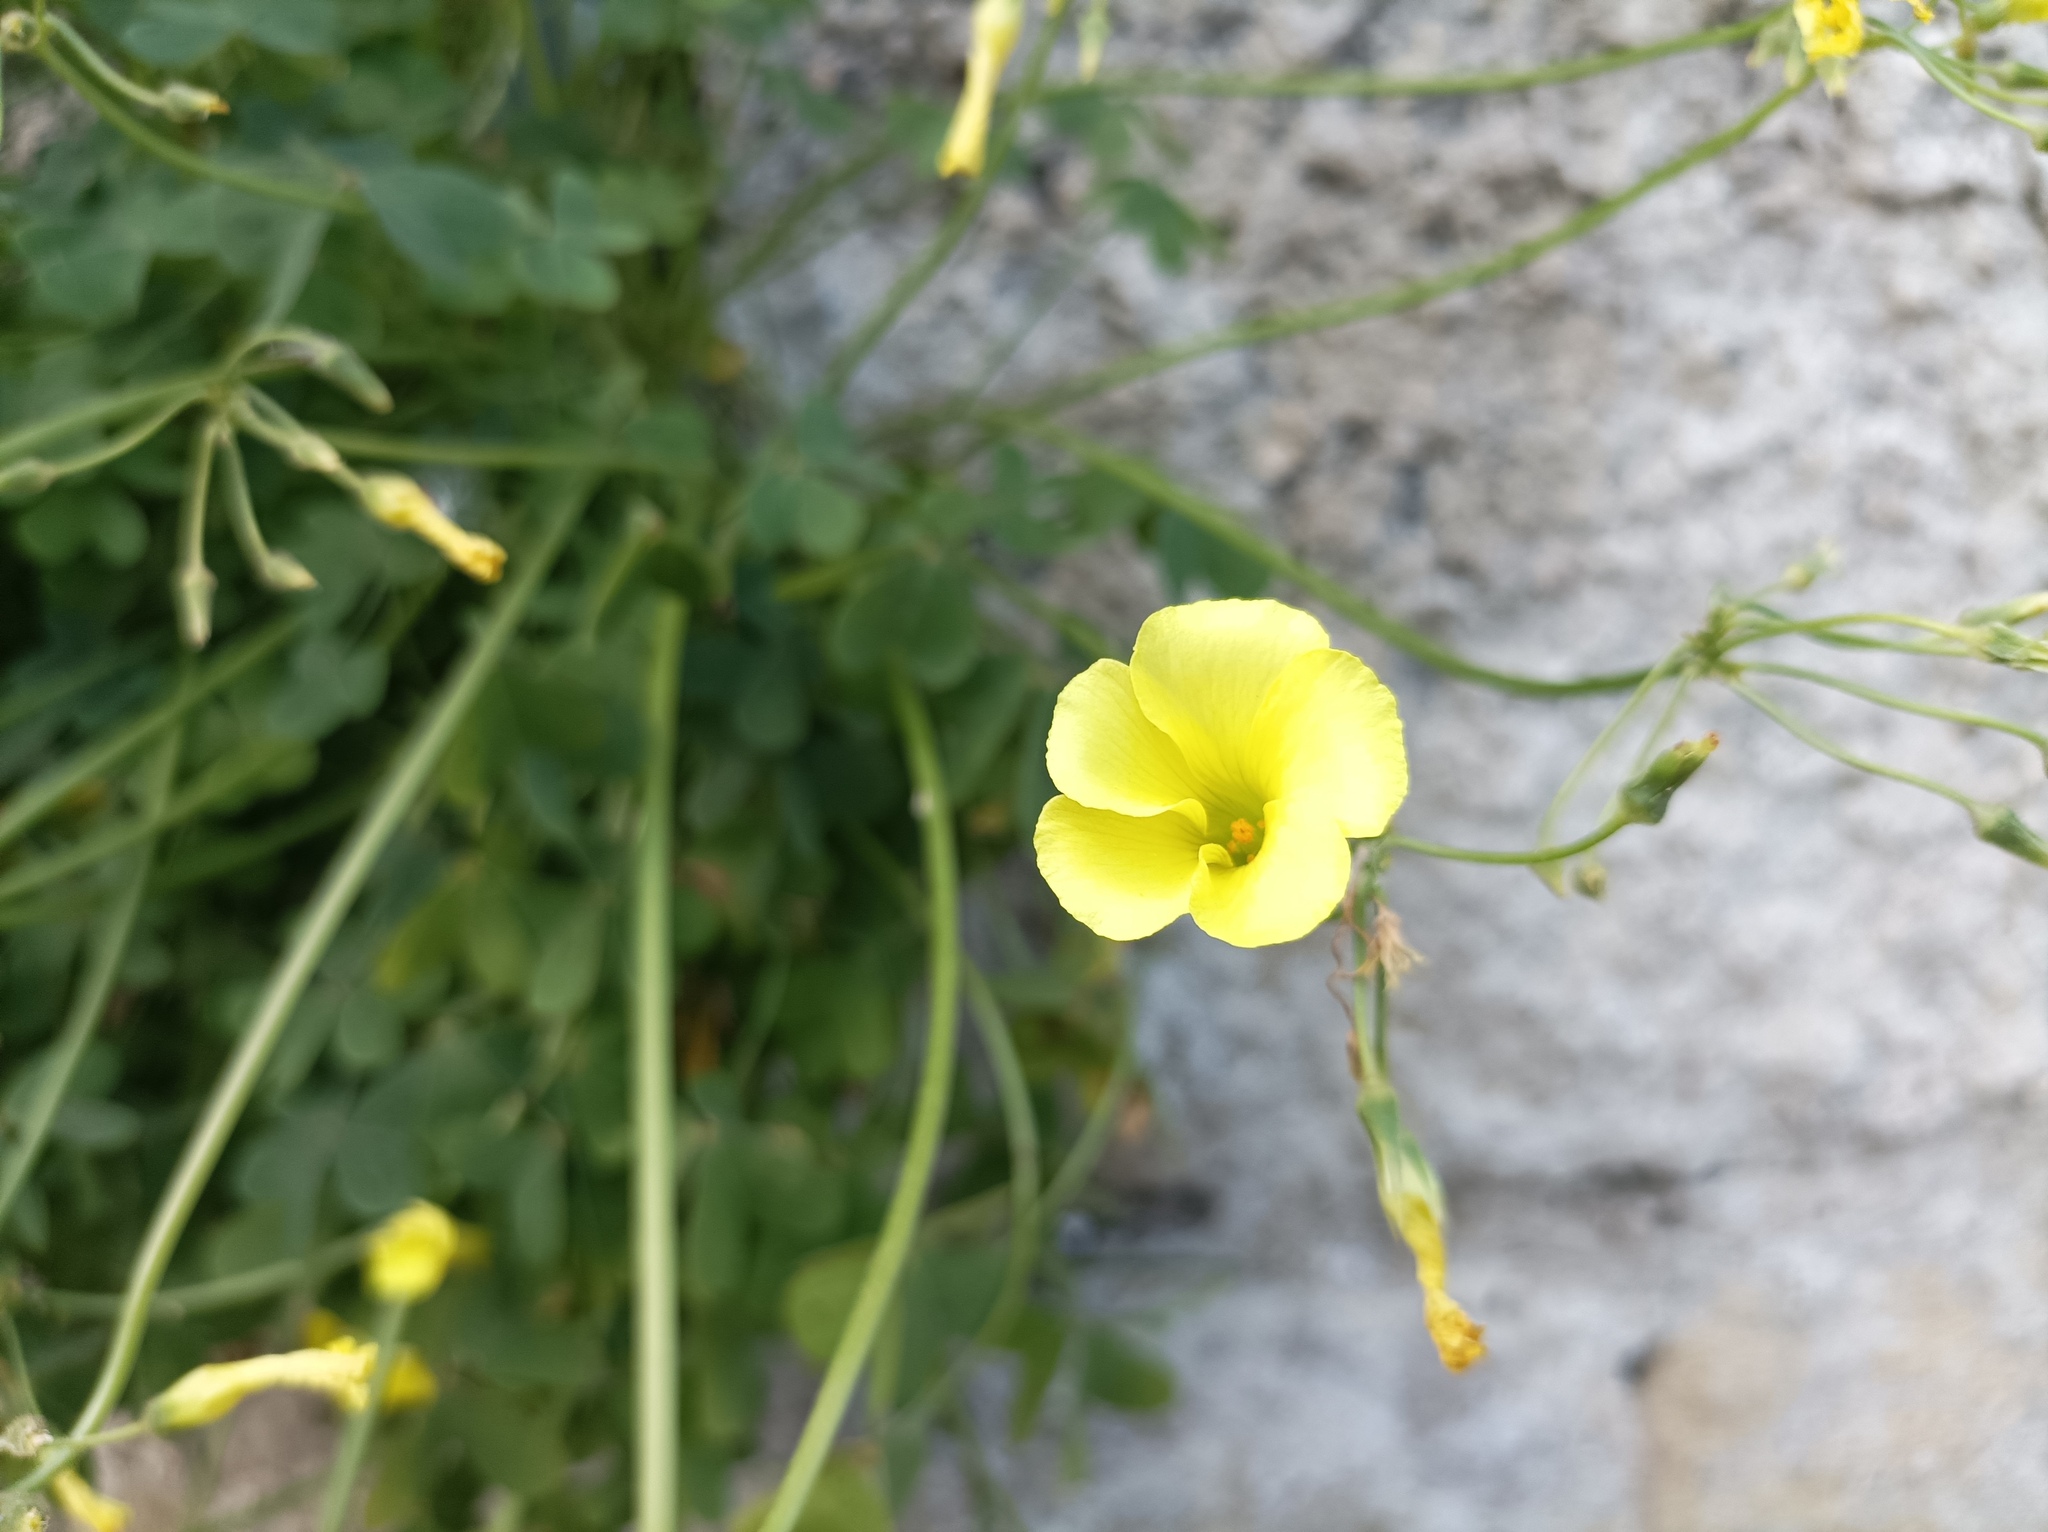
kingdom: Plantae
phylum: Tracheophyta
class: Magnoliopsida
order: Oxalidales
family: Oxalidaceae
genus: Oxalis
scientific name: Oxalis pes-caprae
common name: Bermuda-buttercup
